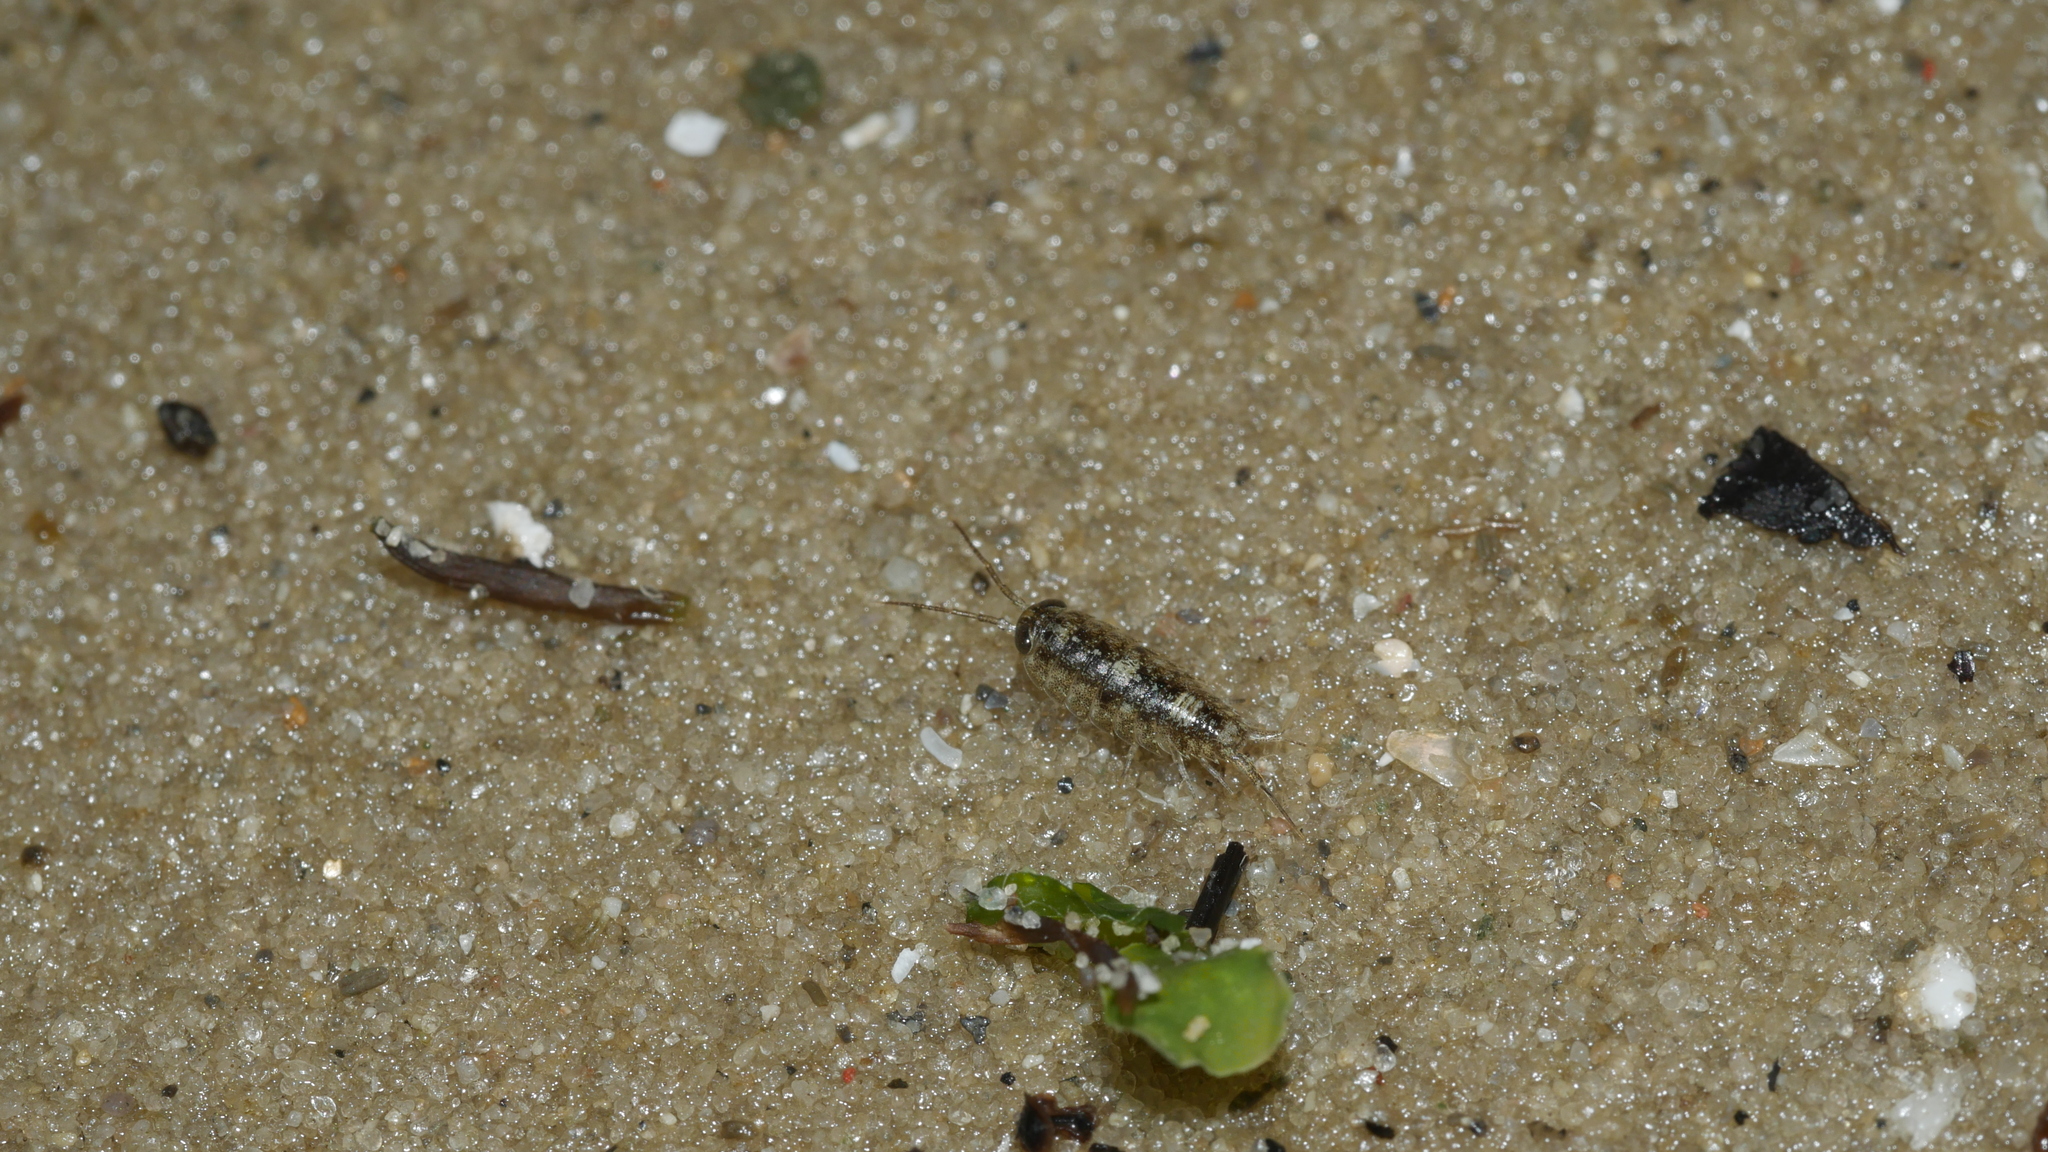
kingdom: Animalia
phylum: Arthropoda
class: Malacostraca
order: Isopoda
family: Ligiidae
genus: Ligia
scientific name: Ligia exotica
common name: Wharf roach
